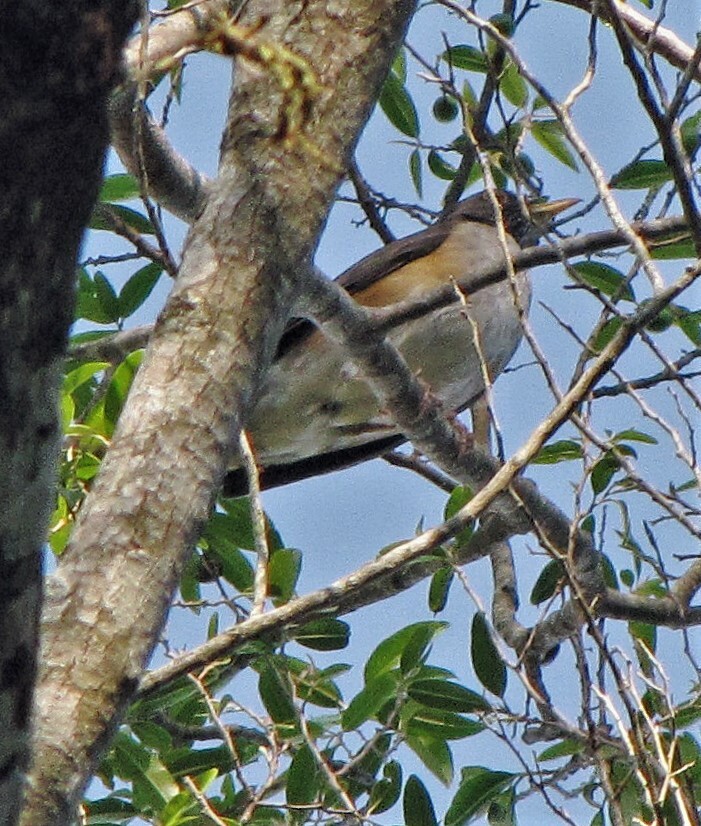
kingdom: Animalia
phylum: Chordata
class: Aves
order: Passeriformes
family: Turdidae
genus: Turdus
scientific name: Turdus albicollis
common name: White-necked thrush
